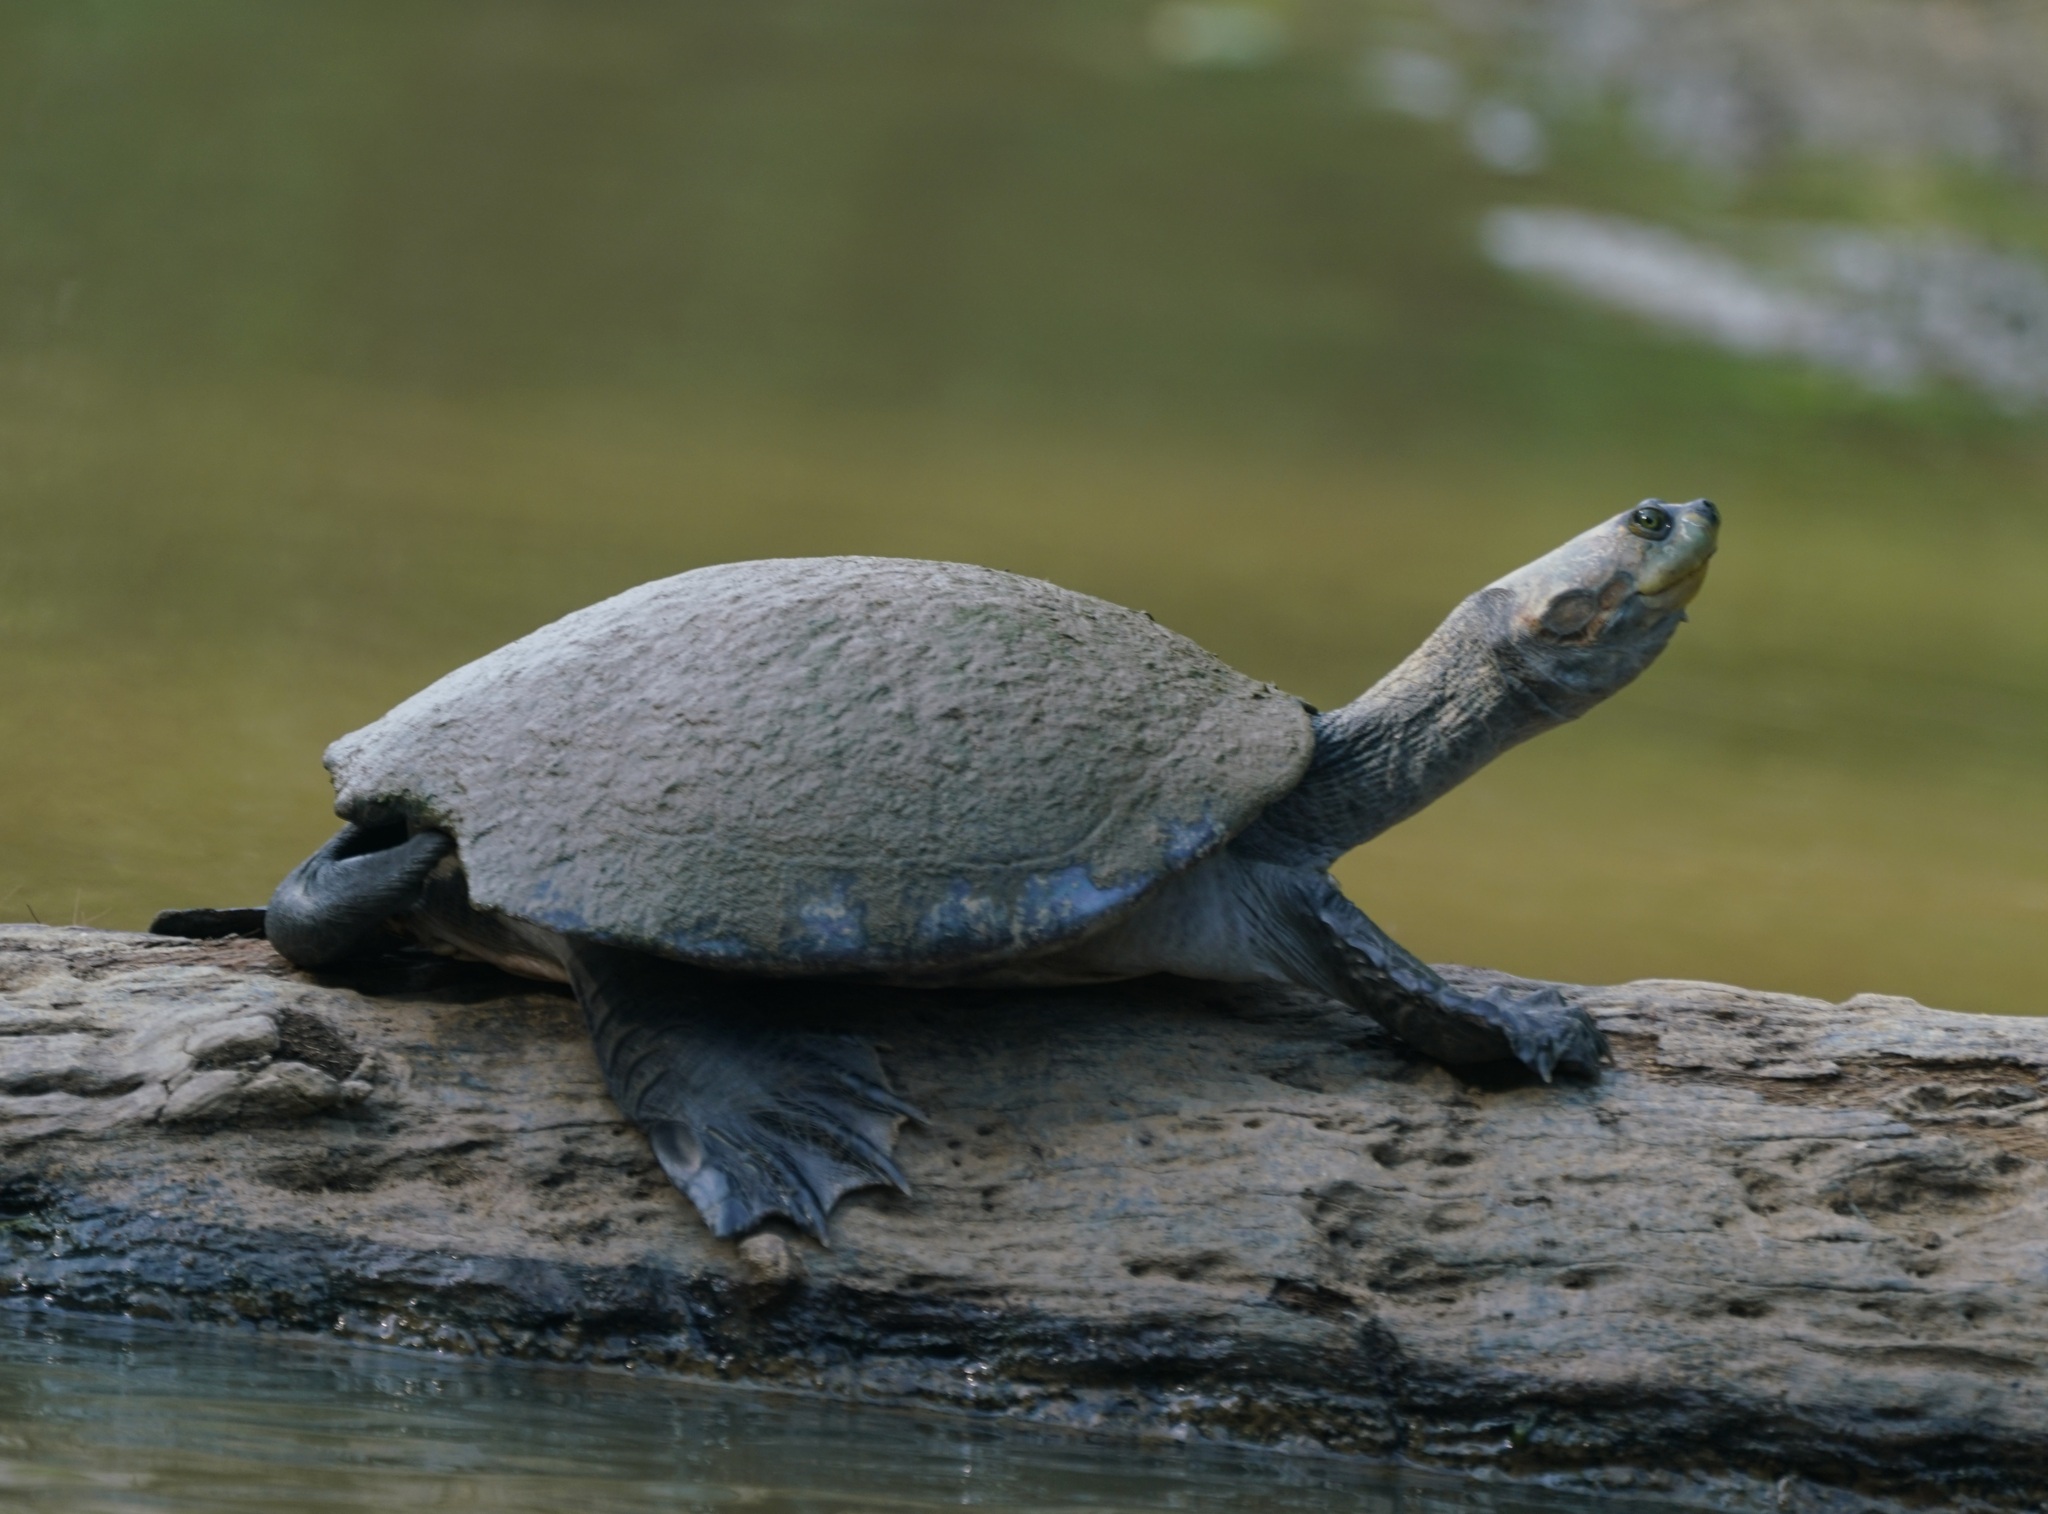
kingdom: Animalia
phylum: Chordata
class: Testudines
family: Podocnemididae
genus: Podocnemis
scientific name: Podocnemis unifilis
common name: Yellow-spotted amazon river turtle
